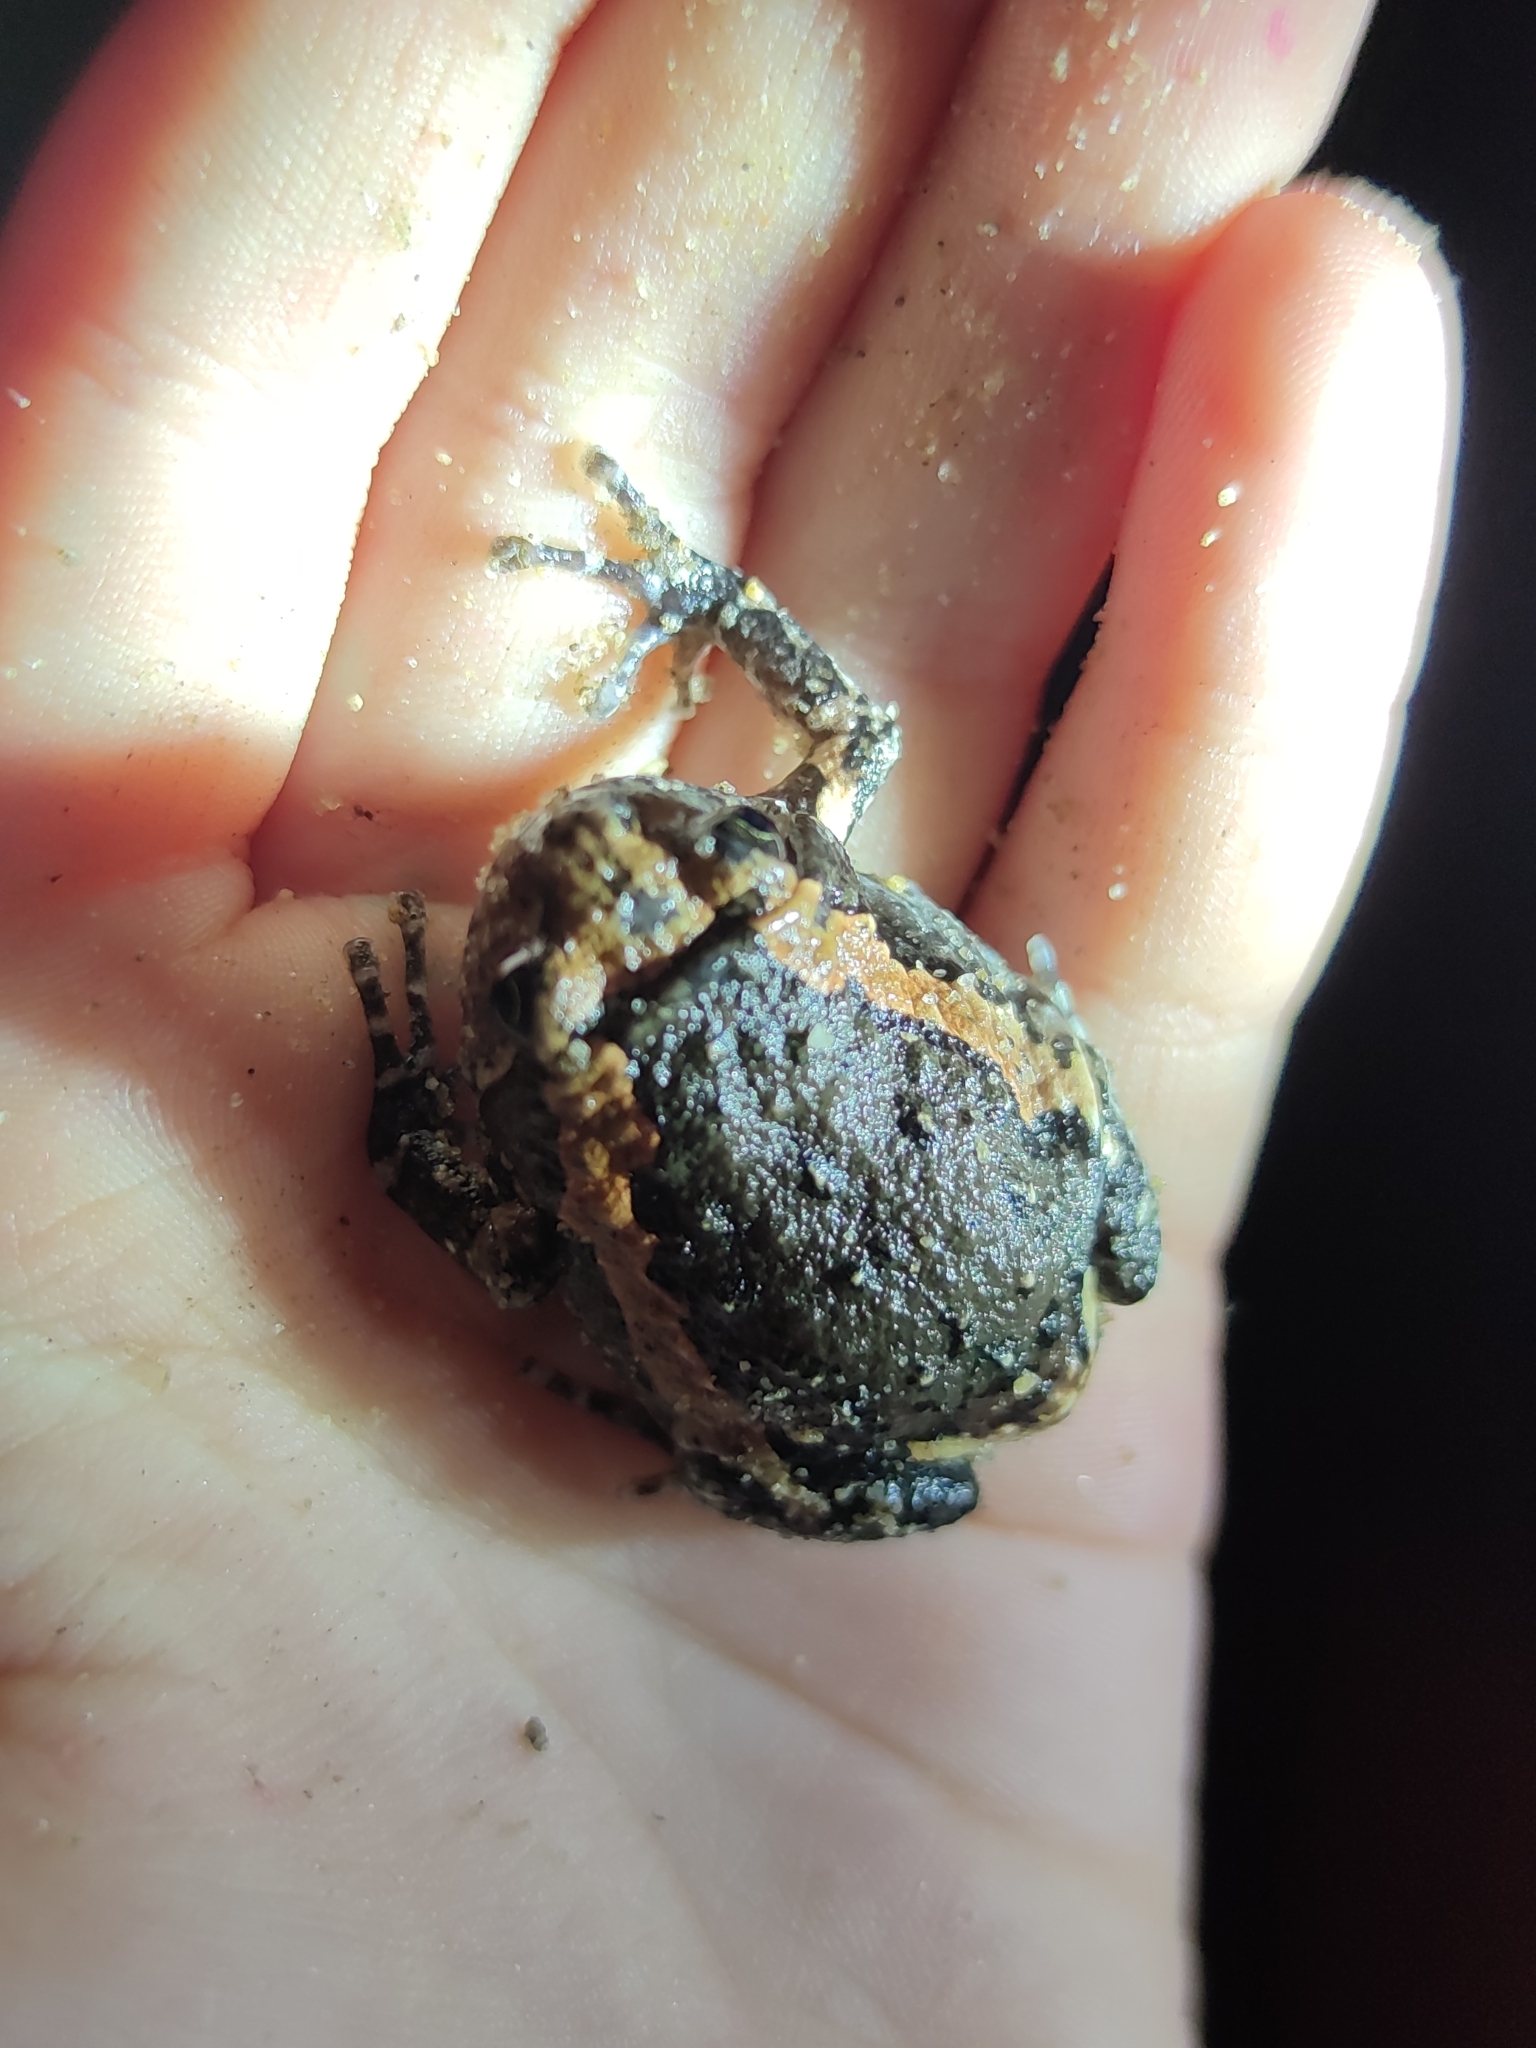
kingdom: Animalia
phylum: Chordata
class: Amphibia
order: Anura
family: Microhylidae
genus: Kaloula
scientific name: Kaloula pulchra
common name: Common,banded bullfrog
